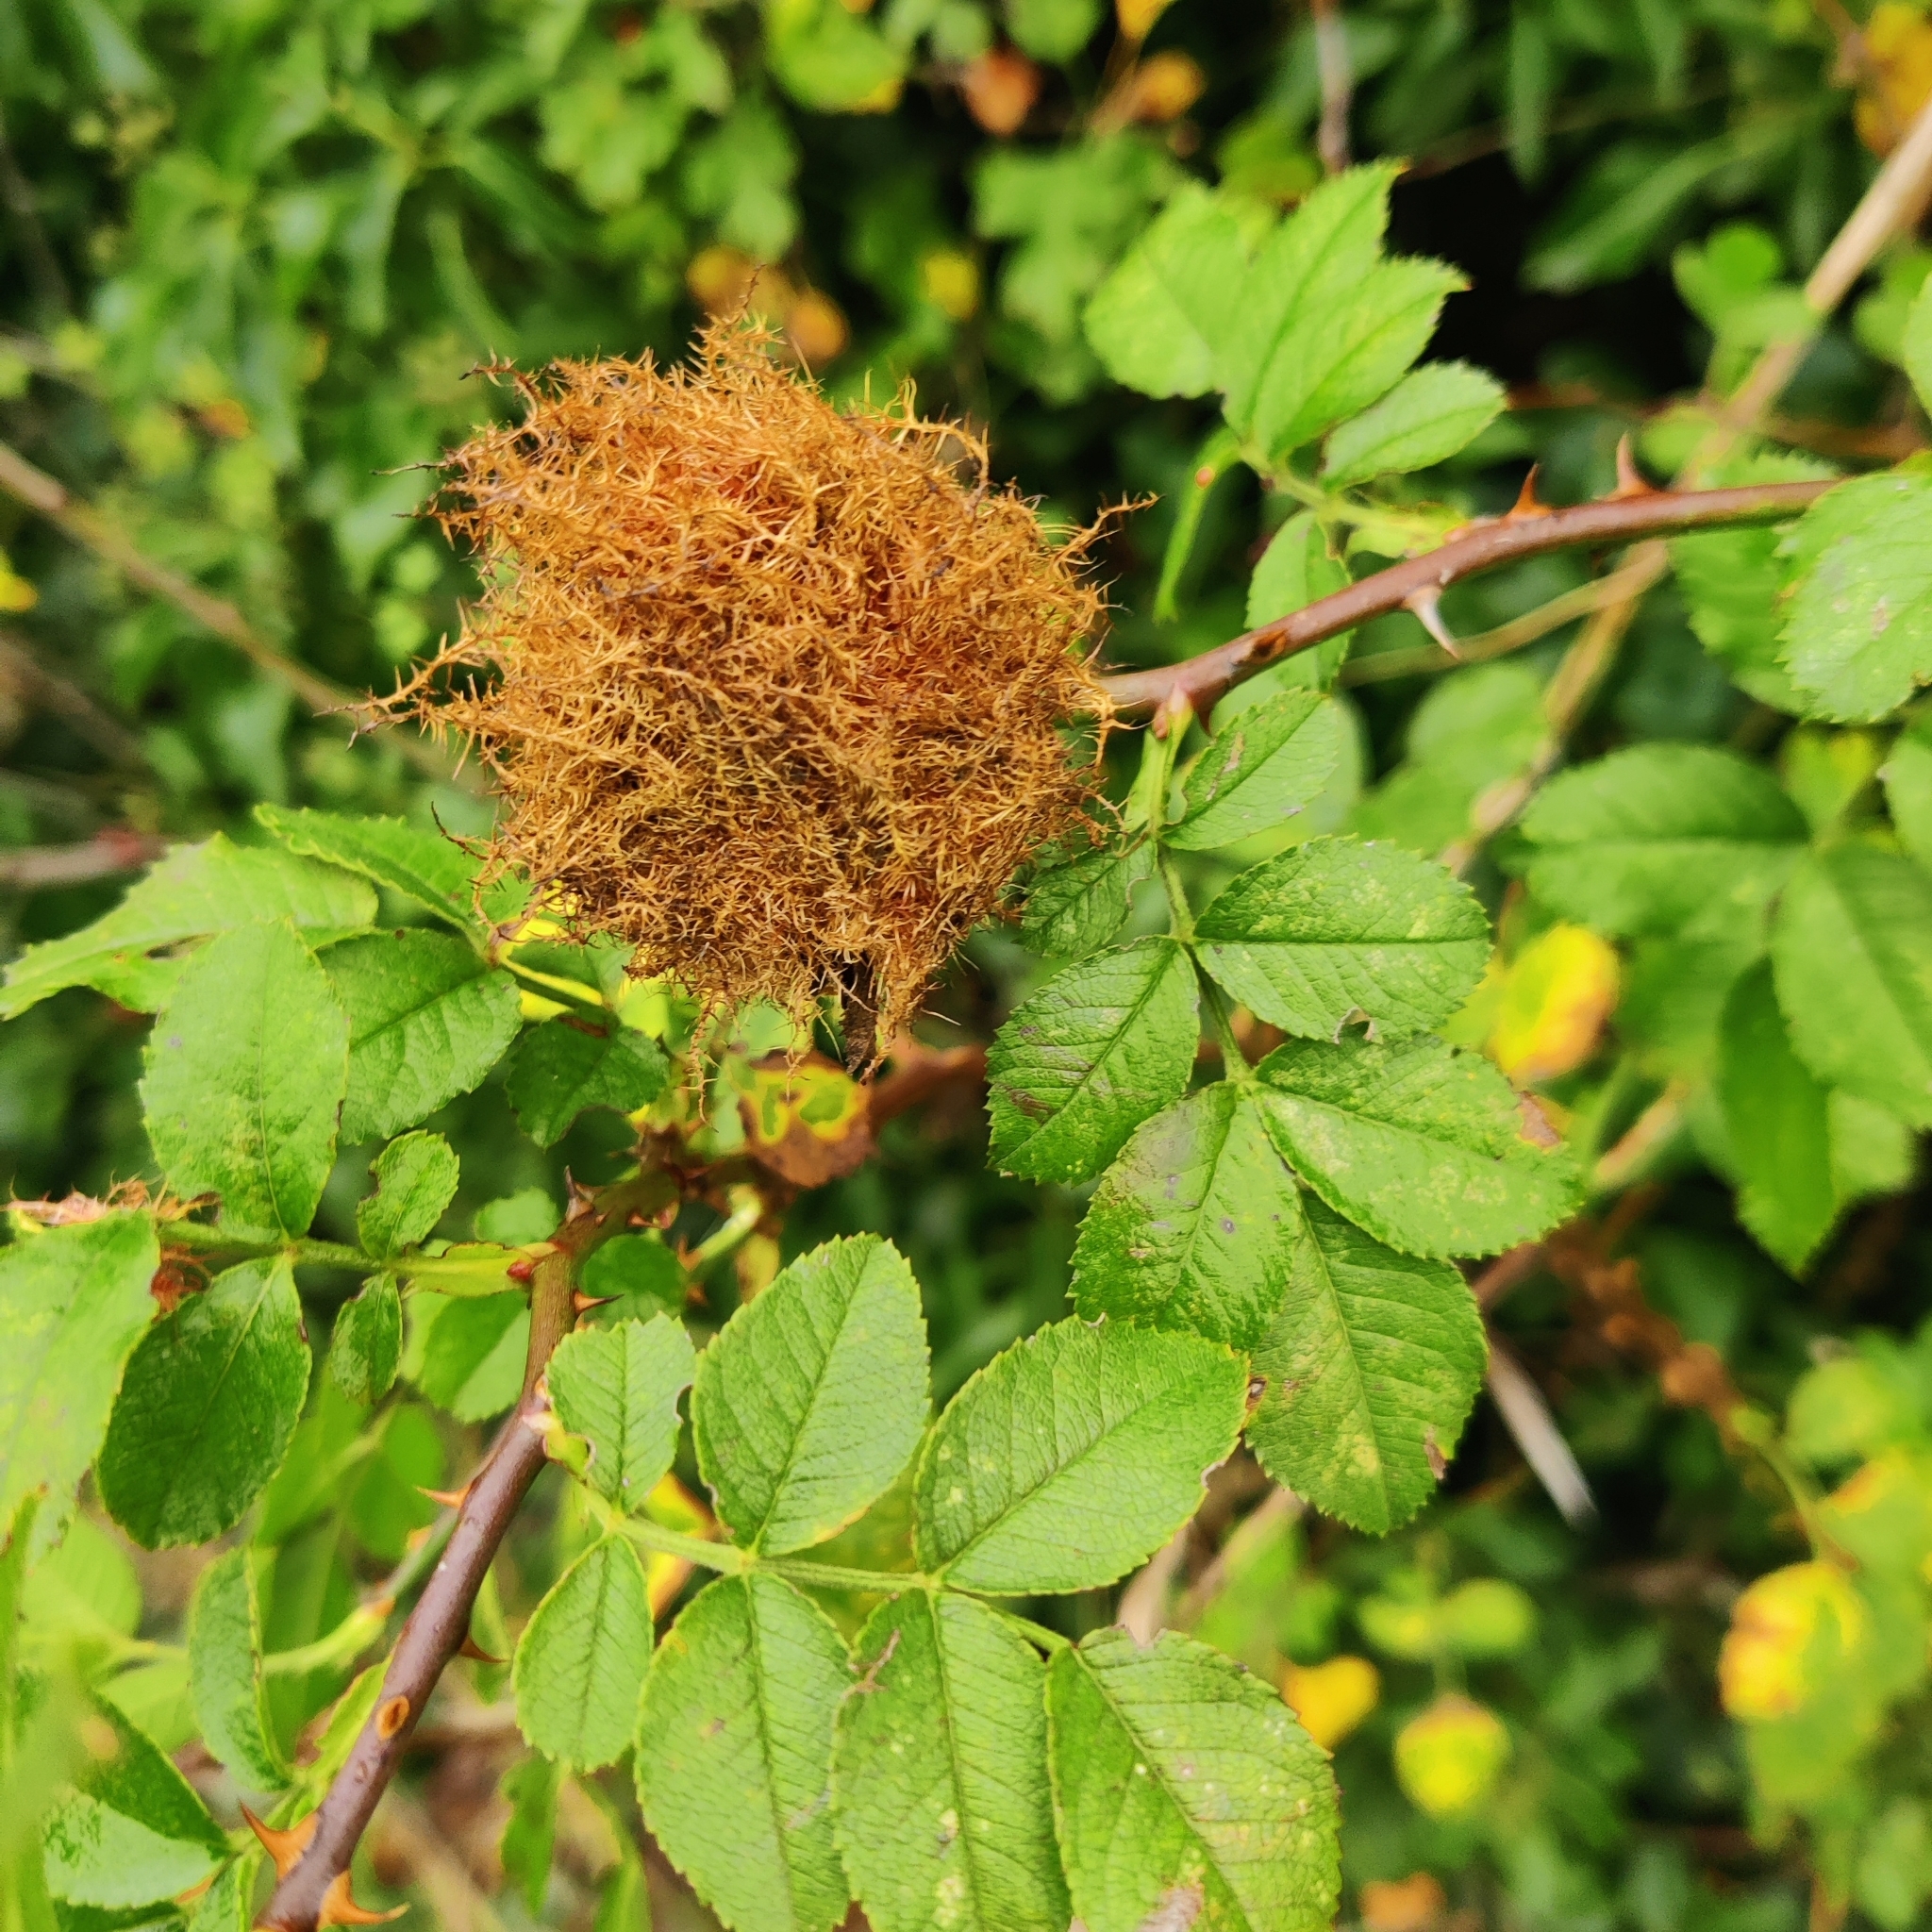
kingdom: Animalia
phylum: Arthropoda
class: Insecta
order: Hymenoptera
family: Cynipidae
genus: Diplolepis
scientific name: Diplolepis rosae
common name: Bedeguar gall
